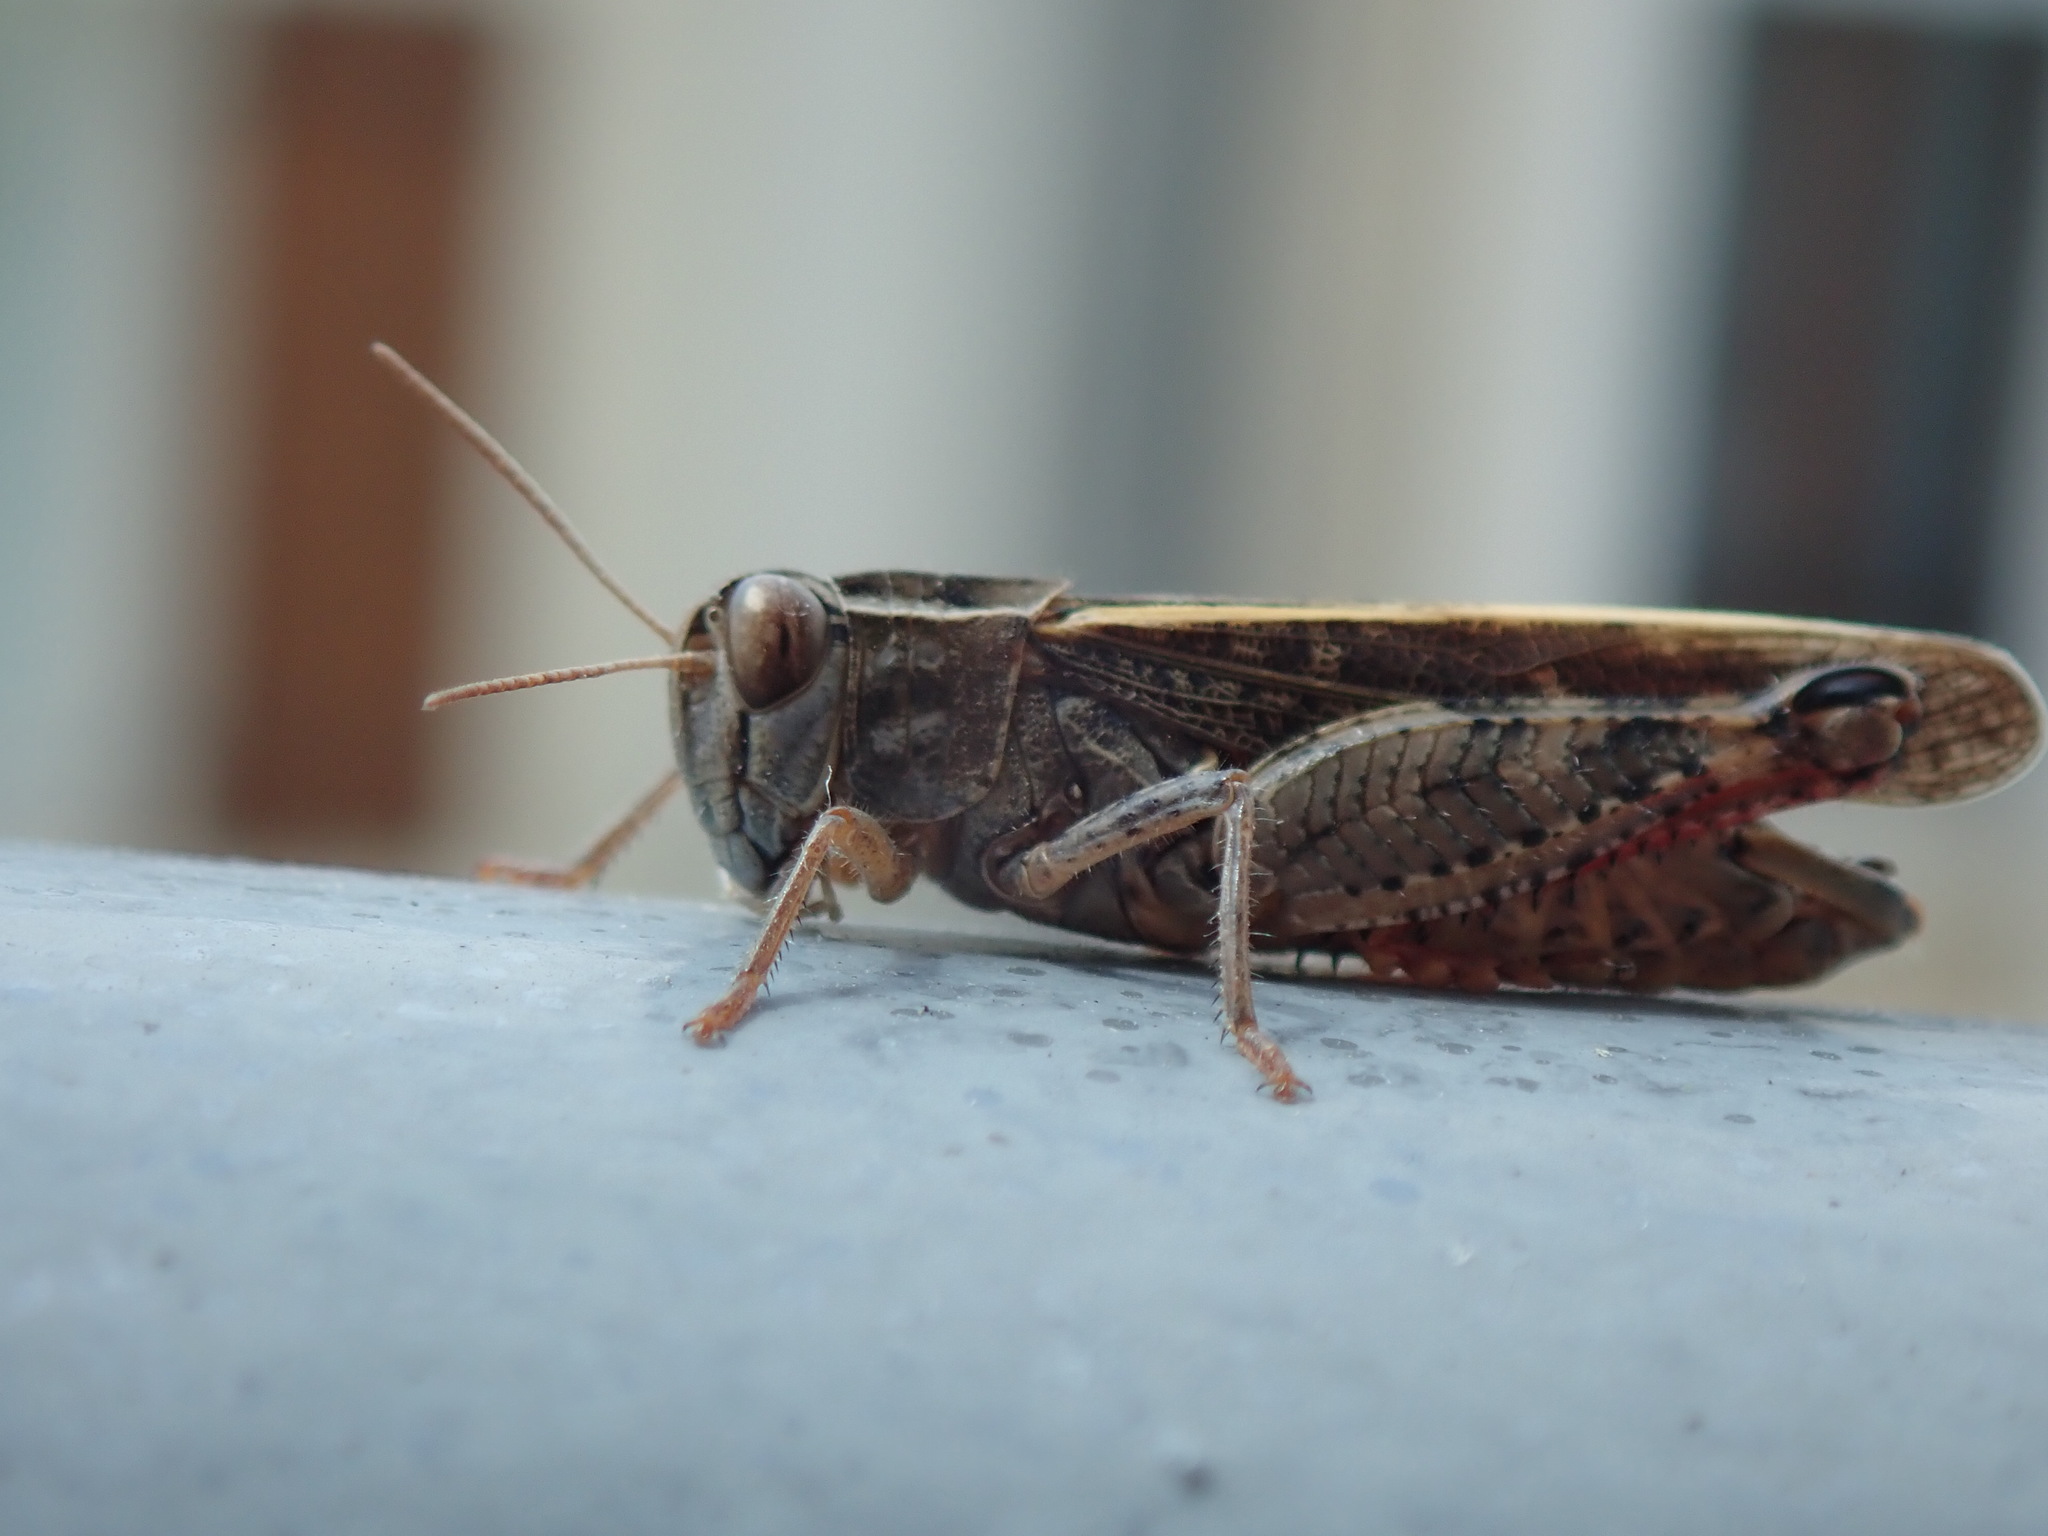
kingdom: Animalia
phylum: Arthropoda
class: Insecta
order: Orthoptera
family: Acrididae
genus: Calliptamus
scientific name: Calliptamus italicus
